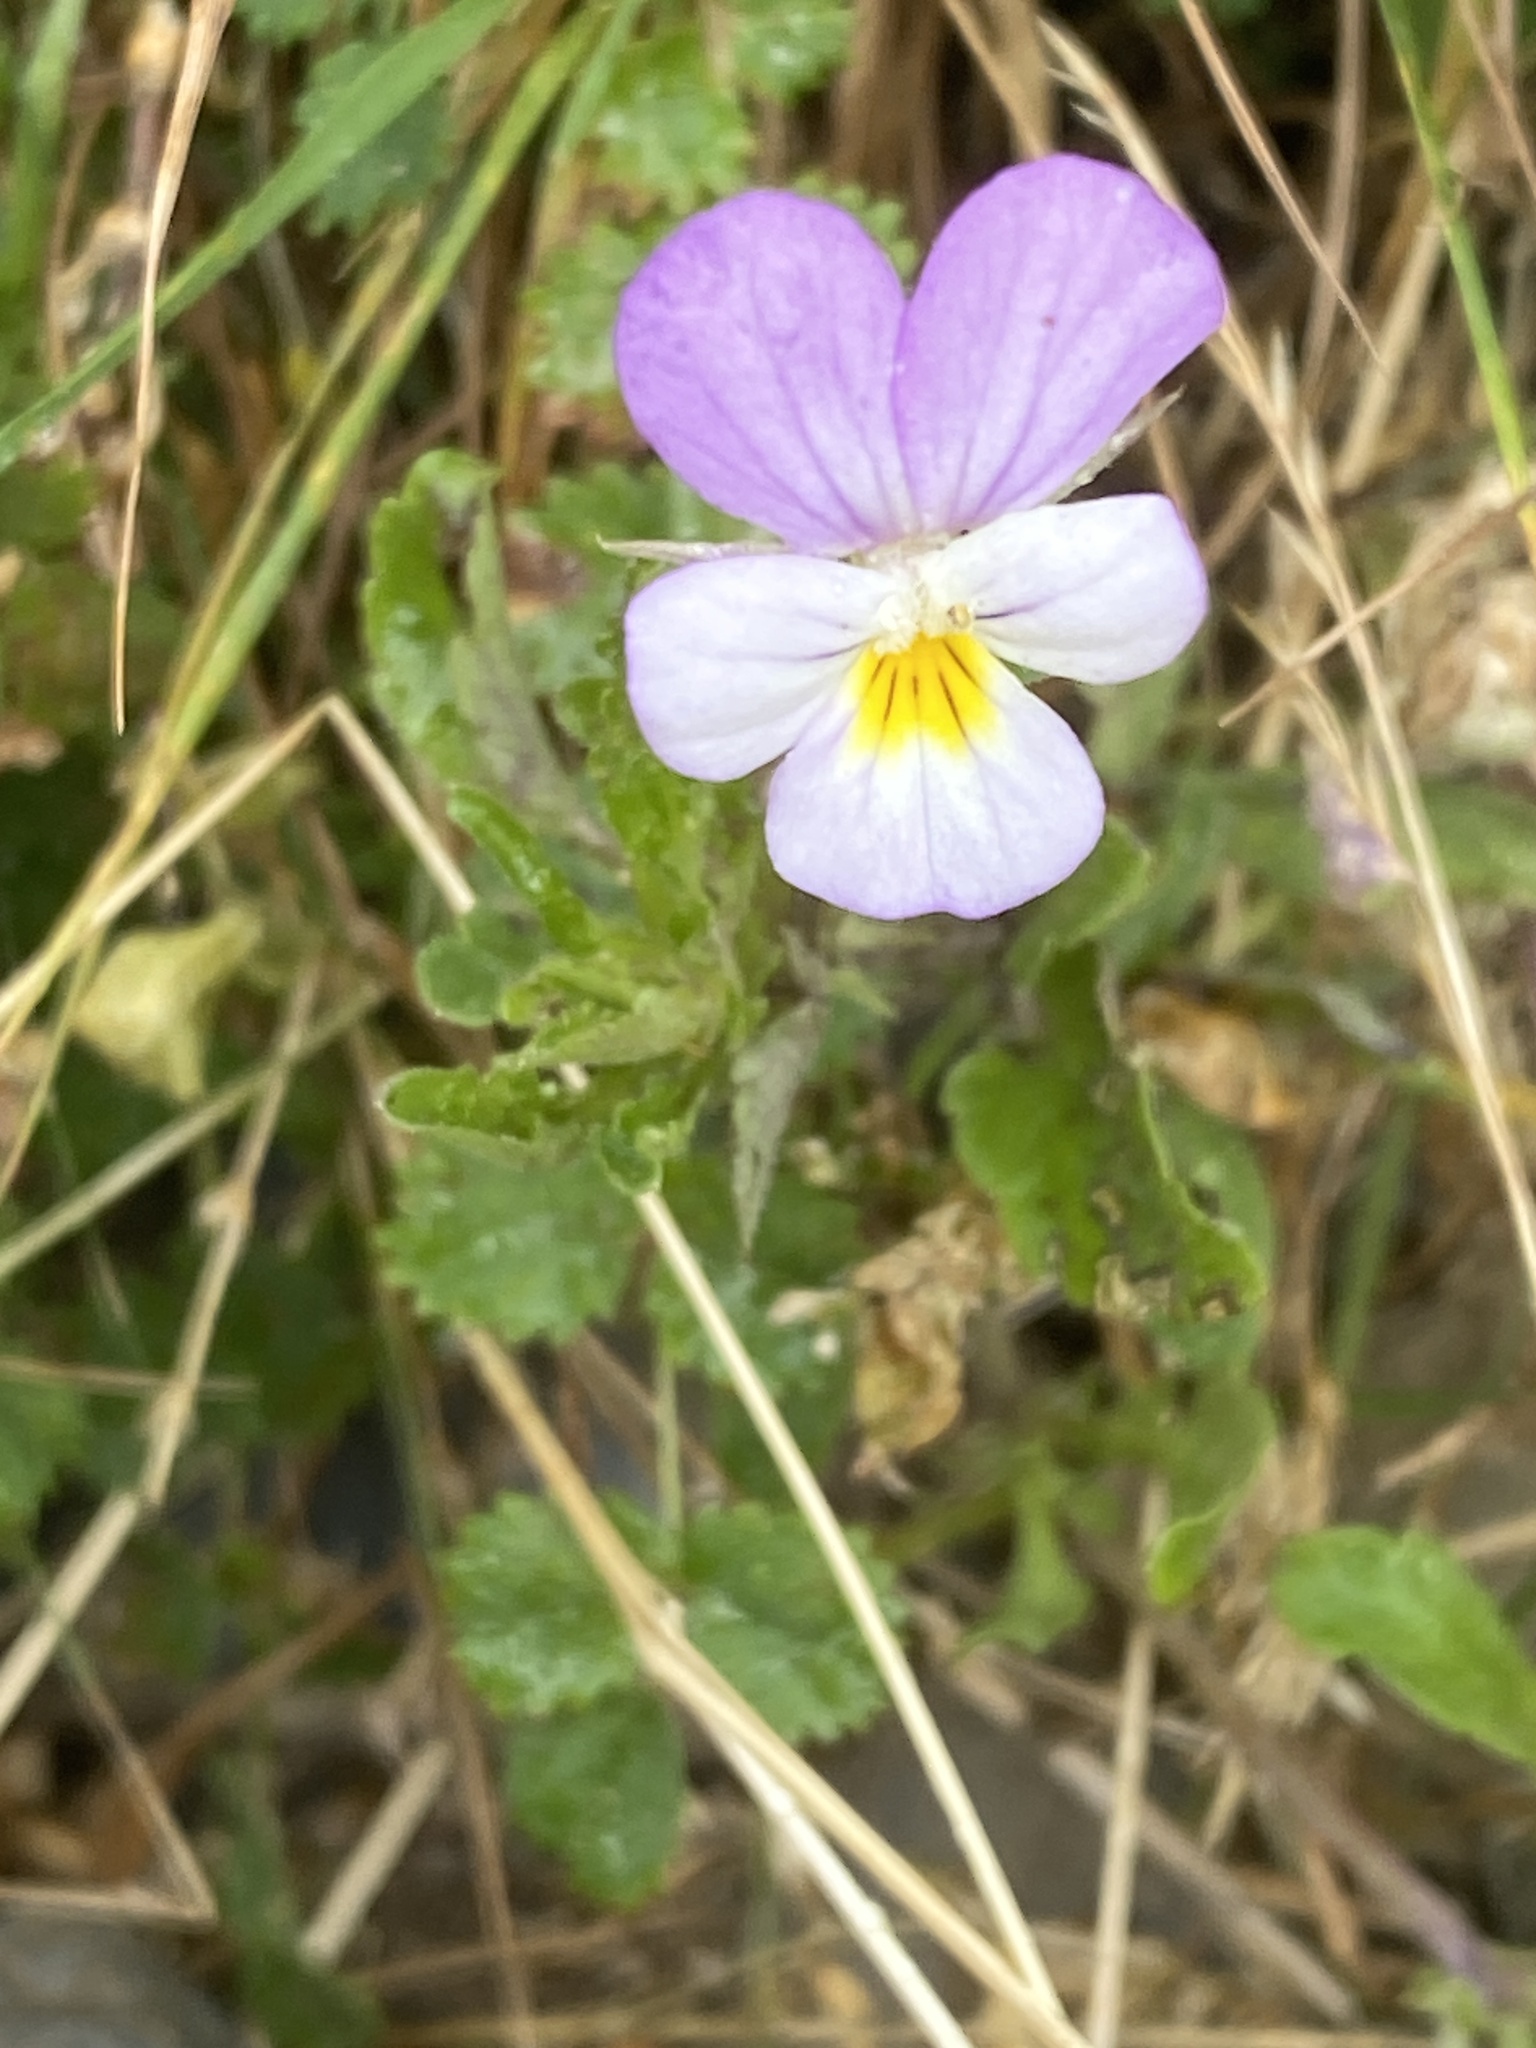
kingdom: Plantae
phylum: Tracheophyta
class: Magnoliopsida
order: Malpighiales
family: Violaceae
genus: Viola
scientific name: Viola tricolor
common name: Pansy
